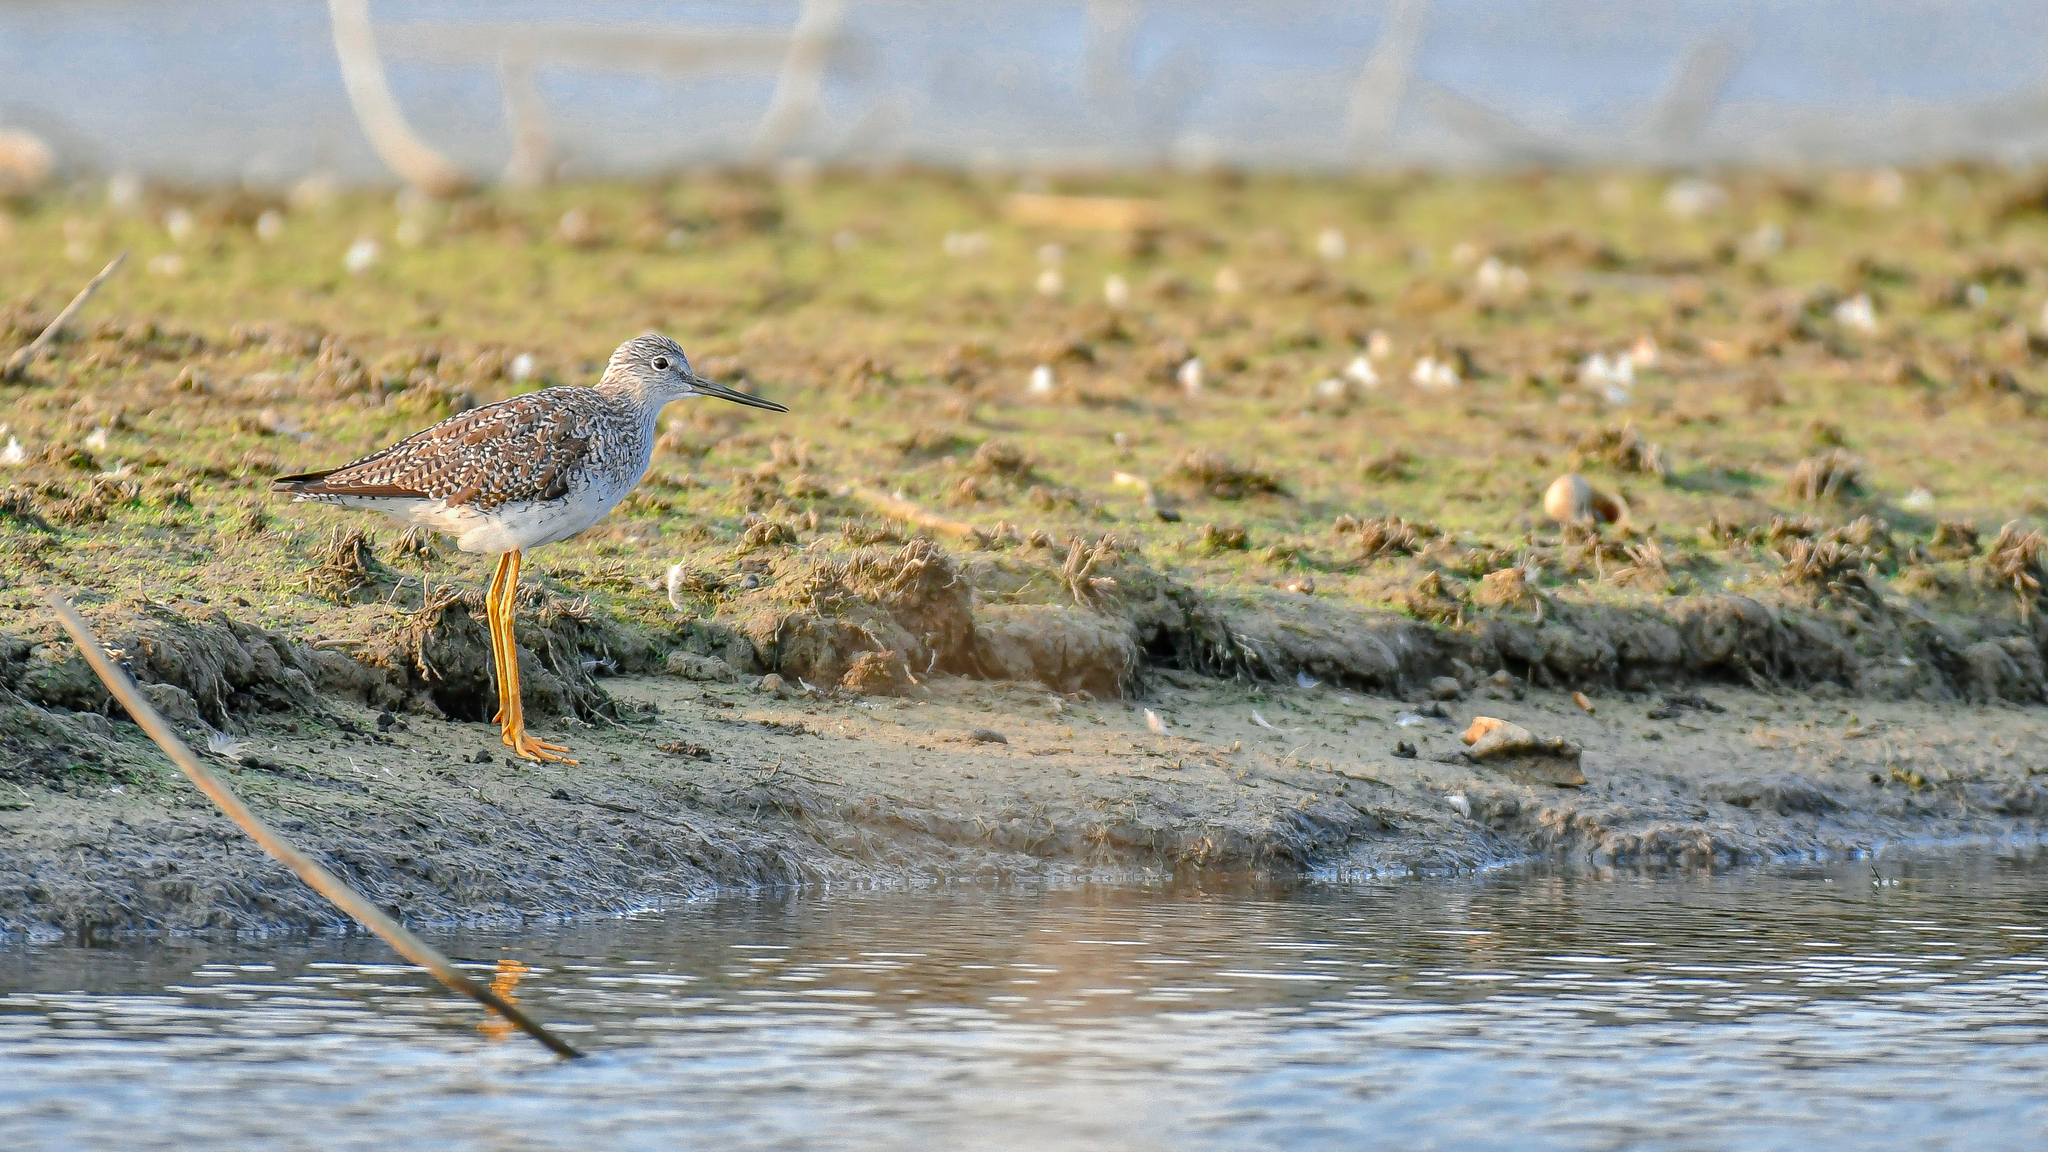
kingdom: Animalia
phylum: Chordata
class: Aves
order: Charadriiformes
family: Scolopacidae
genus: Tringa
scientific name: Tringa melanoleuca
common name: Greater yellowlegs
